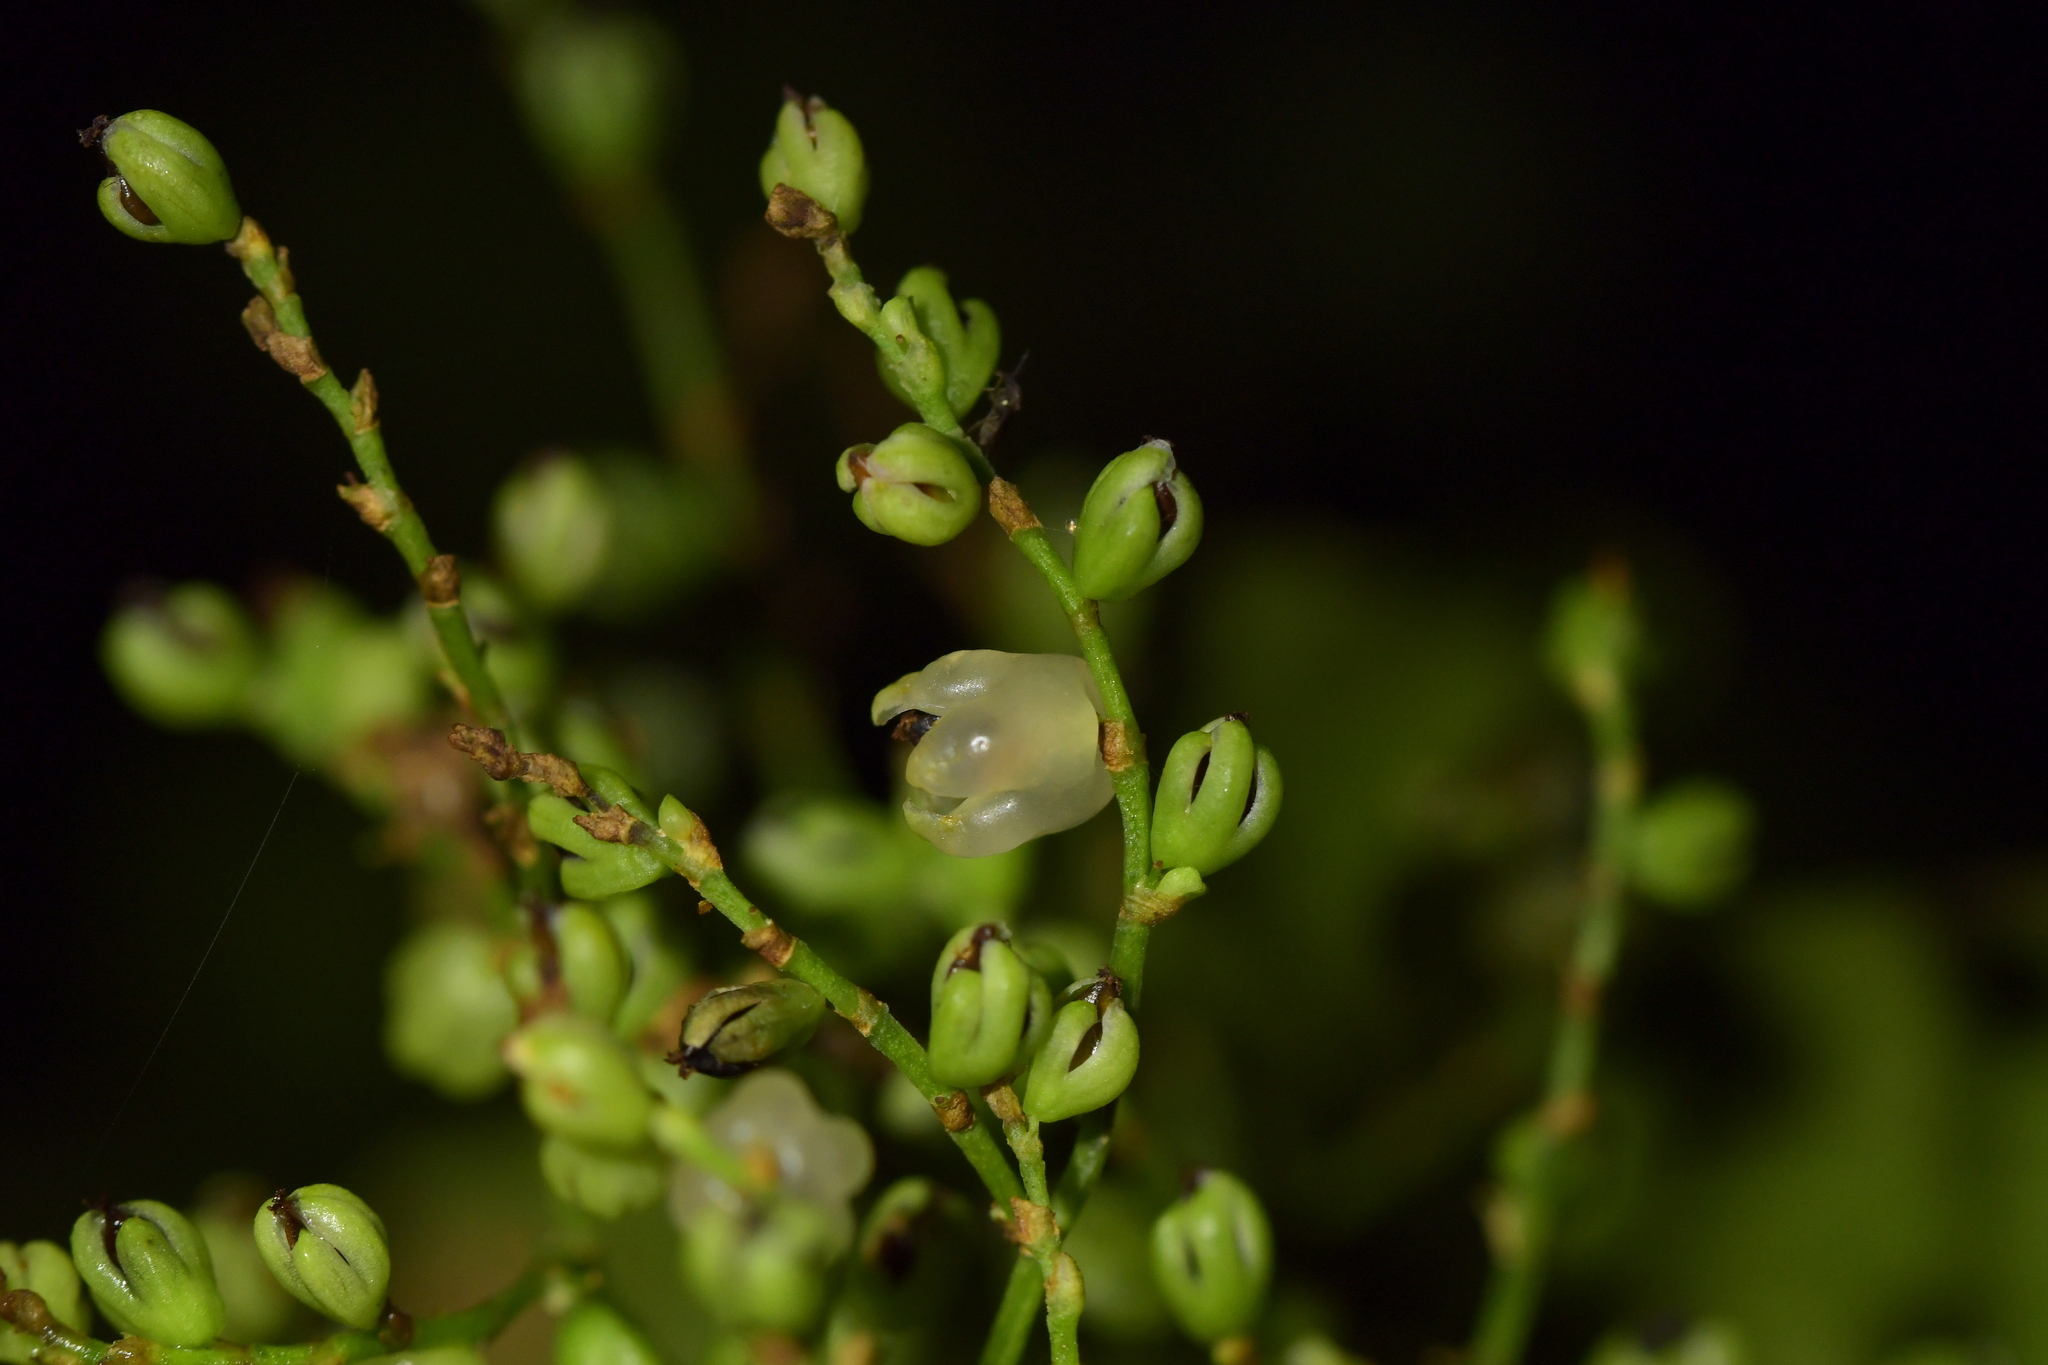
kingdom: Plantae
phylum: Tracheophyta
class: Magnoliopsida
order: Caryophyllales
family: Polygonaceae
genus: Muehlenbeckia
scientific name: Muehlenbeckia australis
